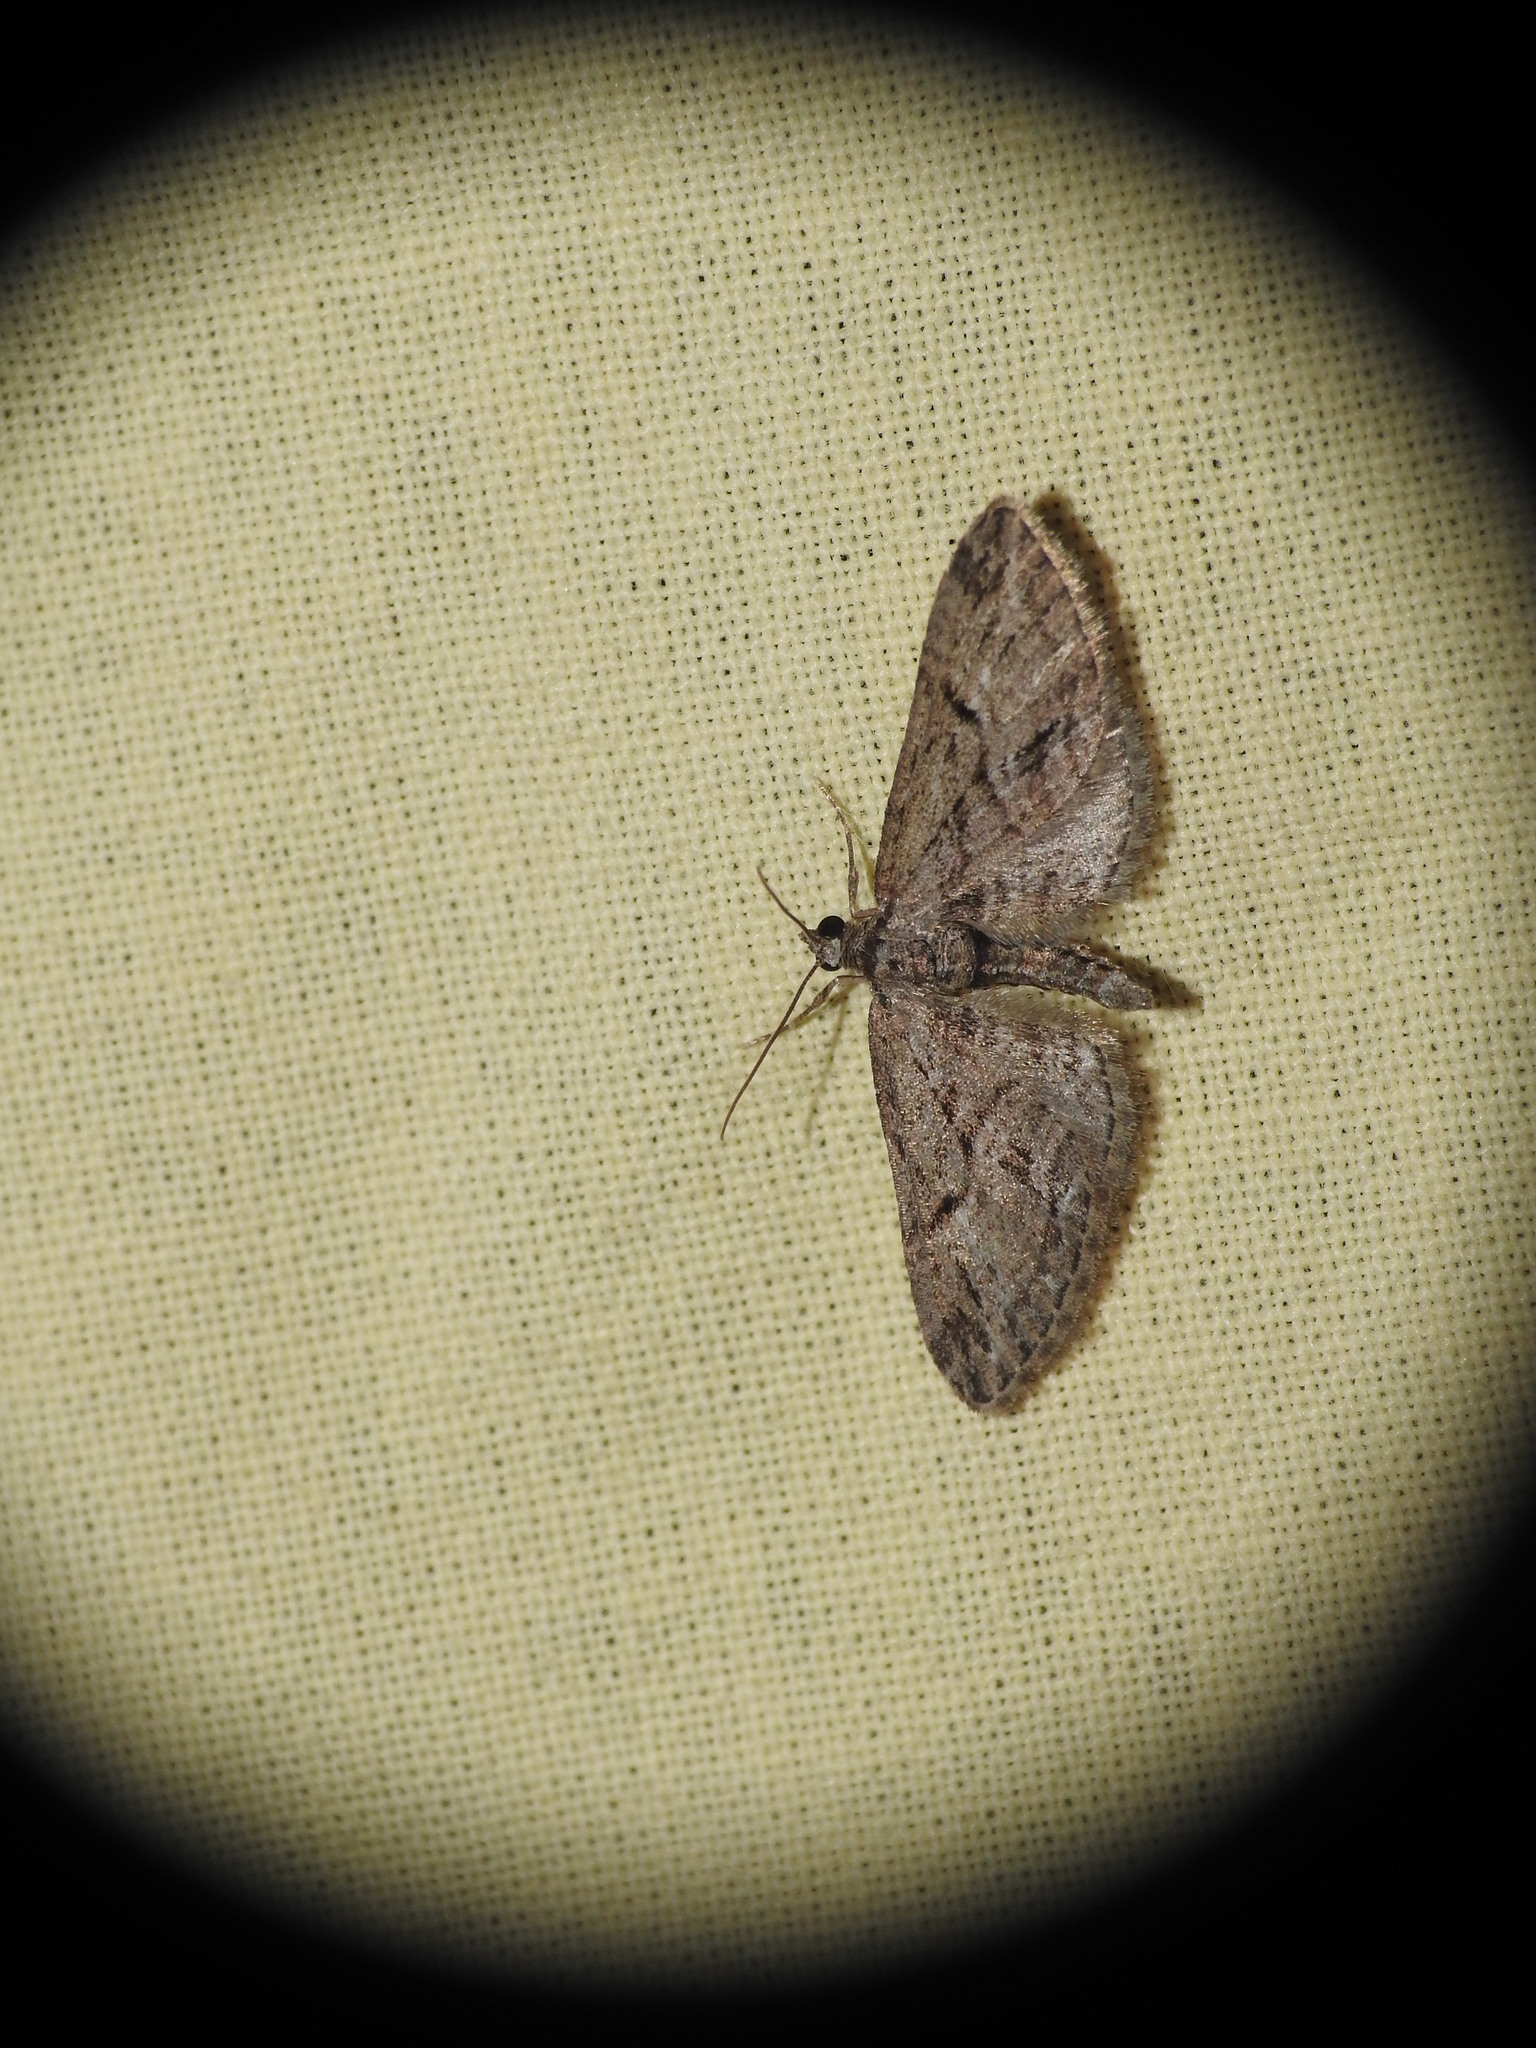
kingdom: Animalia
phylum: Arthropoda
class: Insecta
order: Lepidoptera
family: Geometridae
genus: Eupithecia
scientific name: Eupithecia oxycedrata
